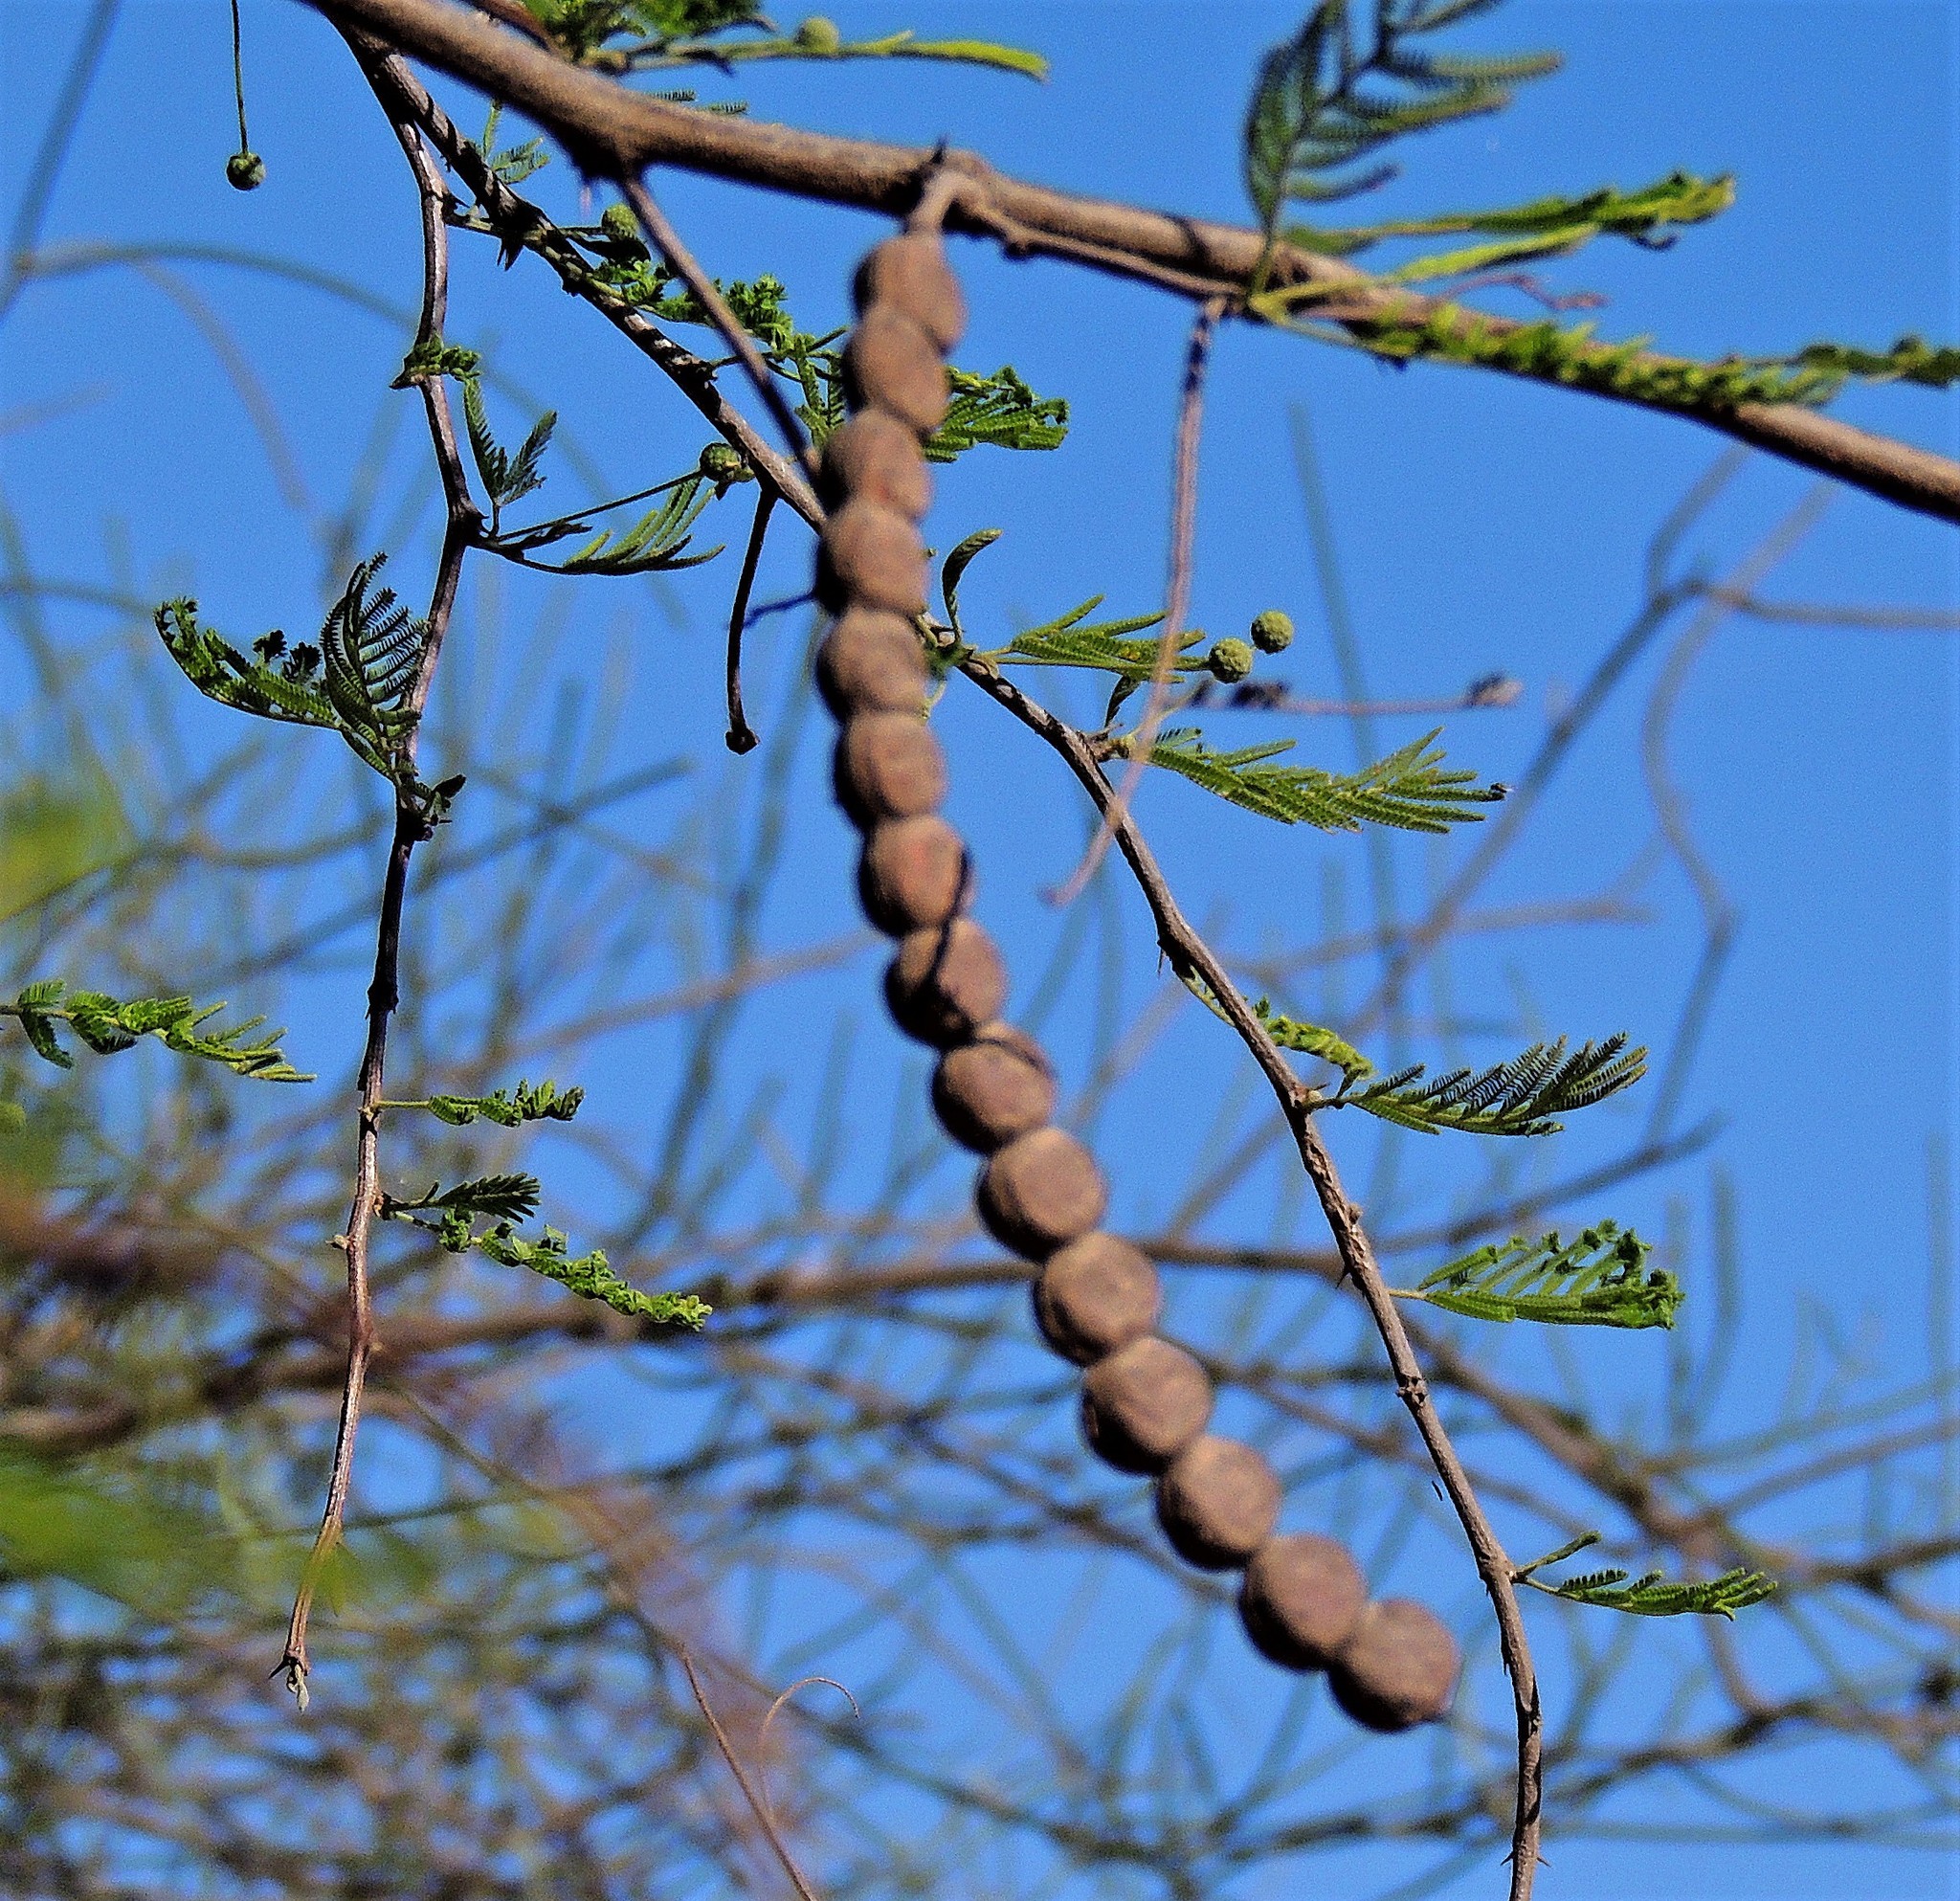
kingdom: Plantae
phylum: Tracheophyta
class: Magnoliopsida
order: Fabales
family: Fabaceae
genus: Vachellia
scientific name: Vachellia aroma
